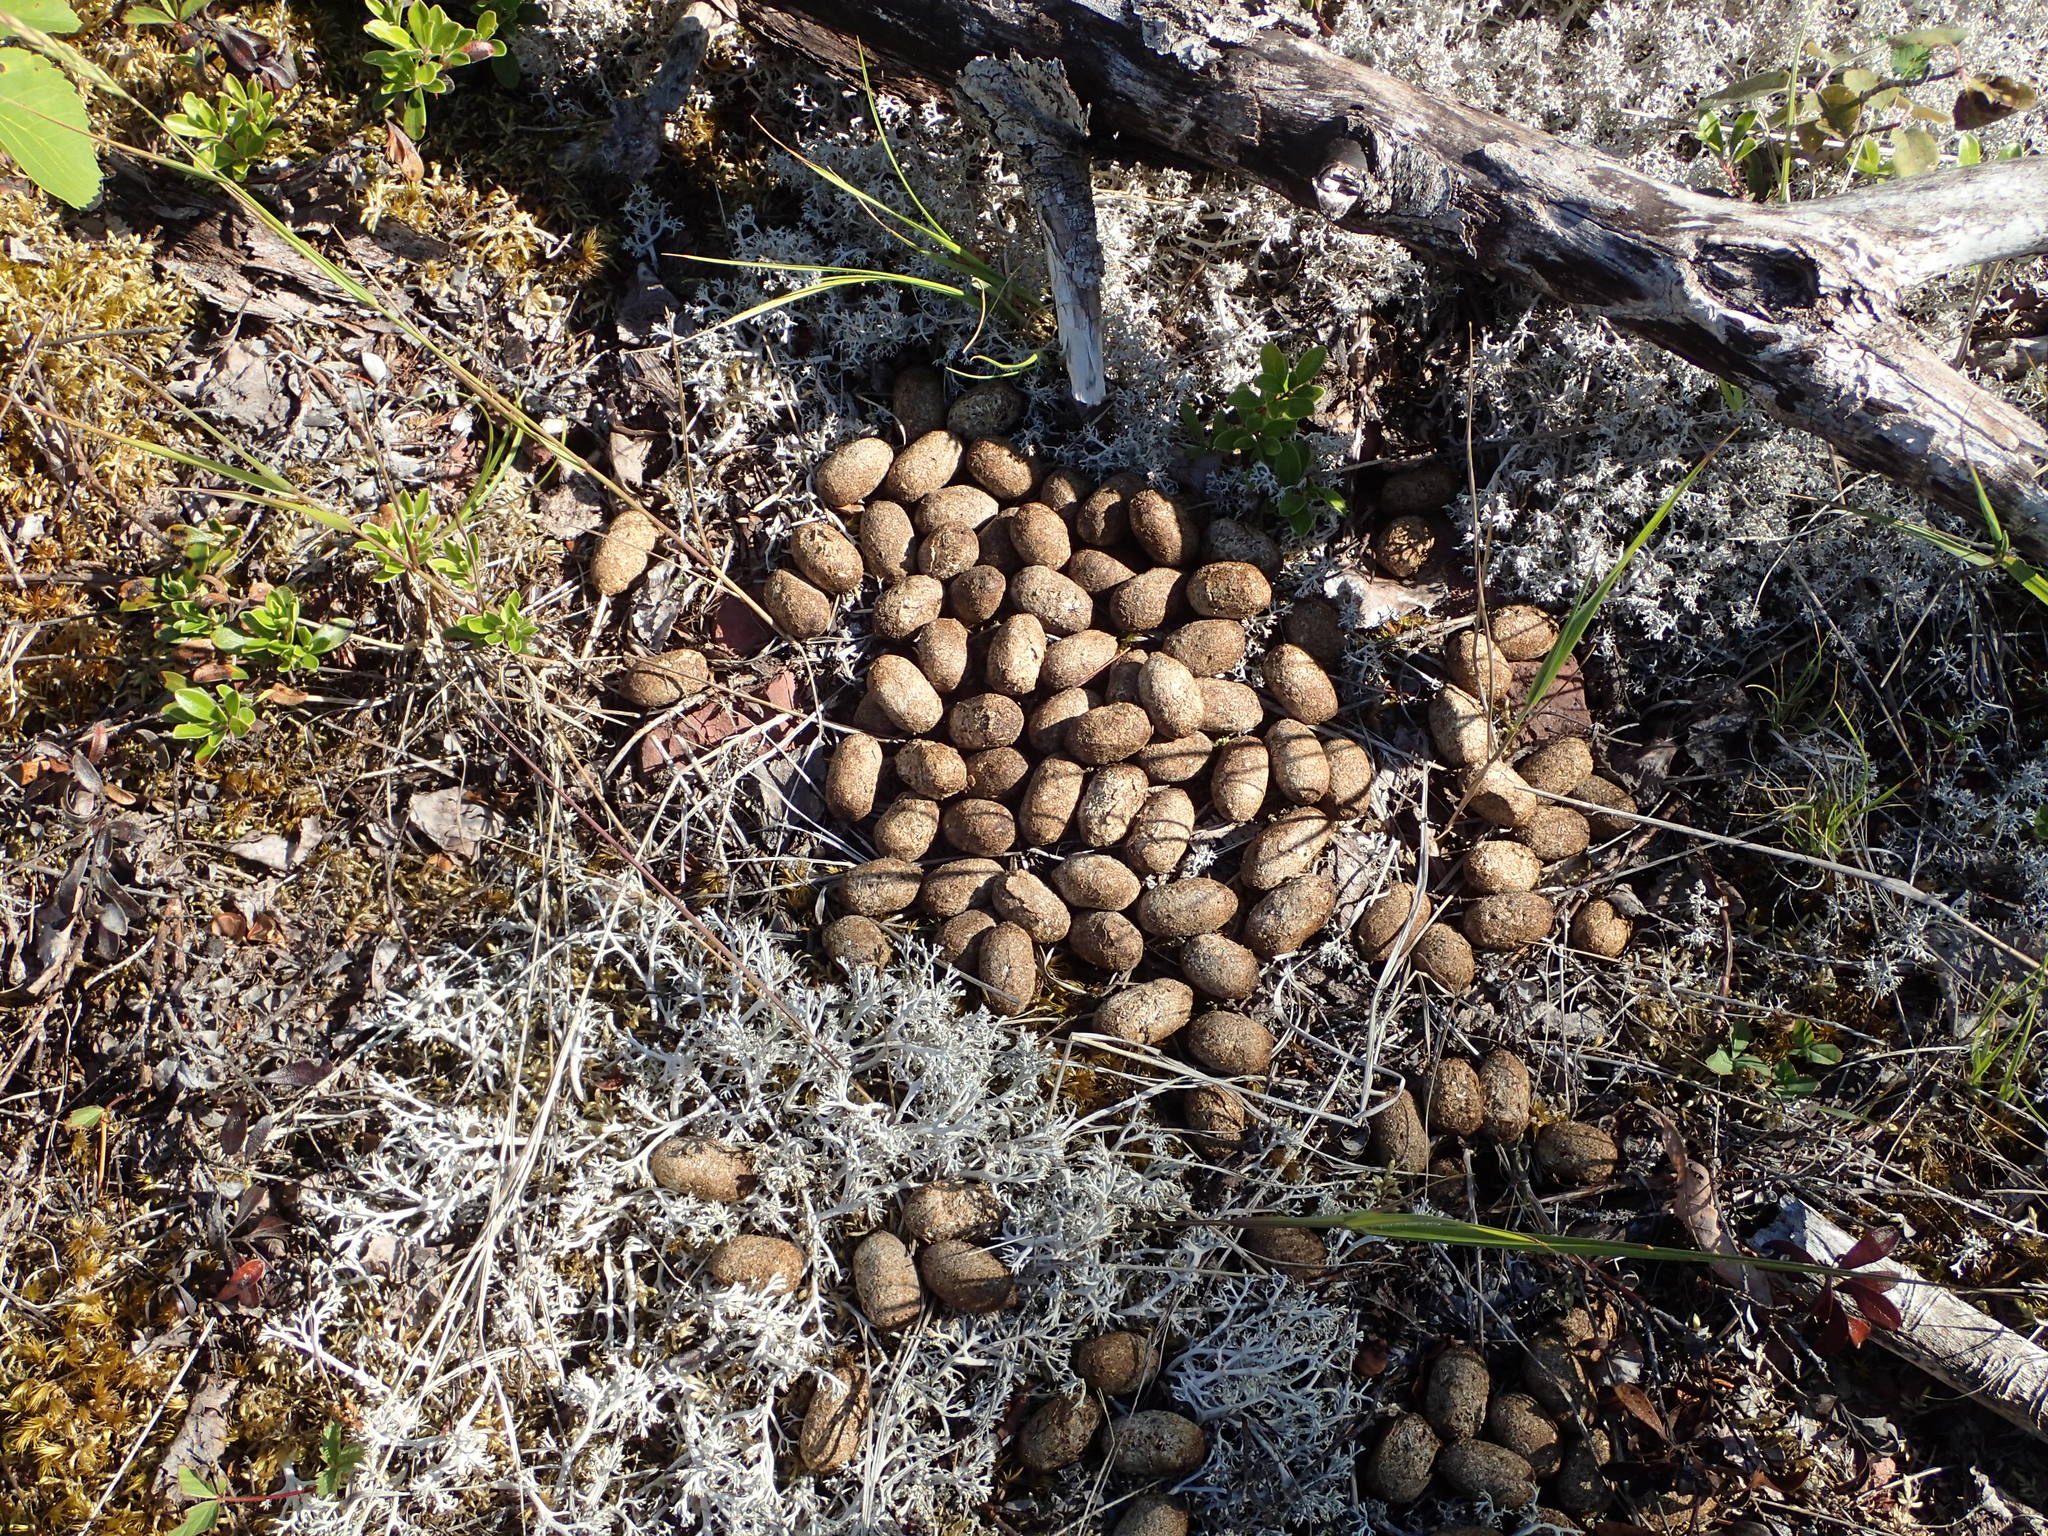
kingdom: Animalia
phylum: Chordata
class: Mammalia
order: Artiodactyla
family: Cervidae
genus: Alces
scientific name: Alces alces
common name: Moose
